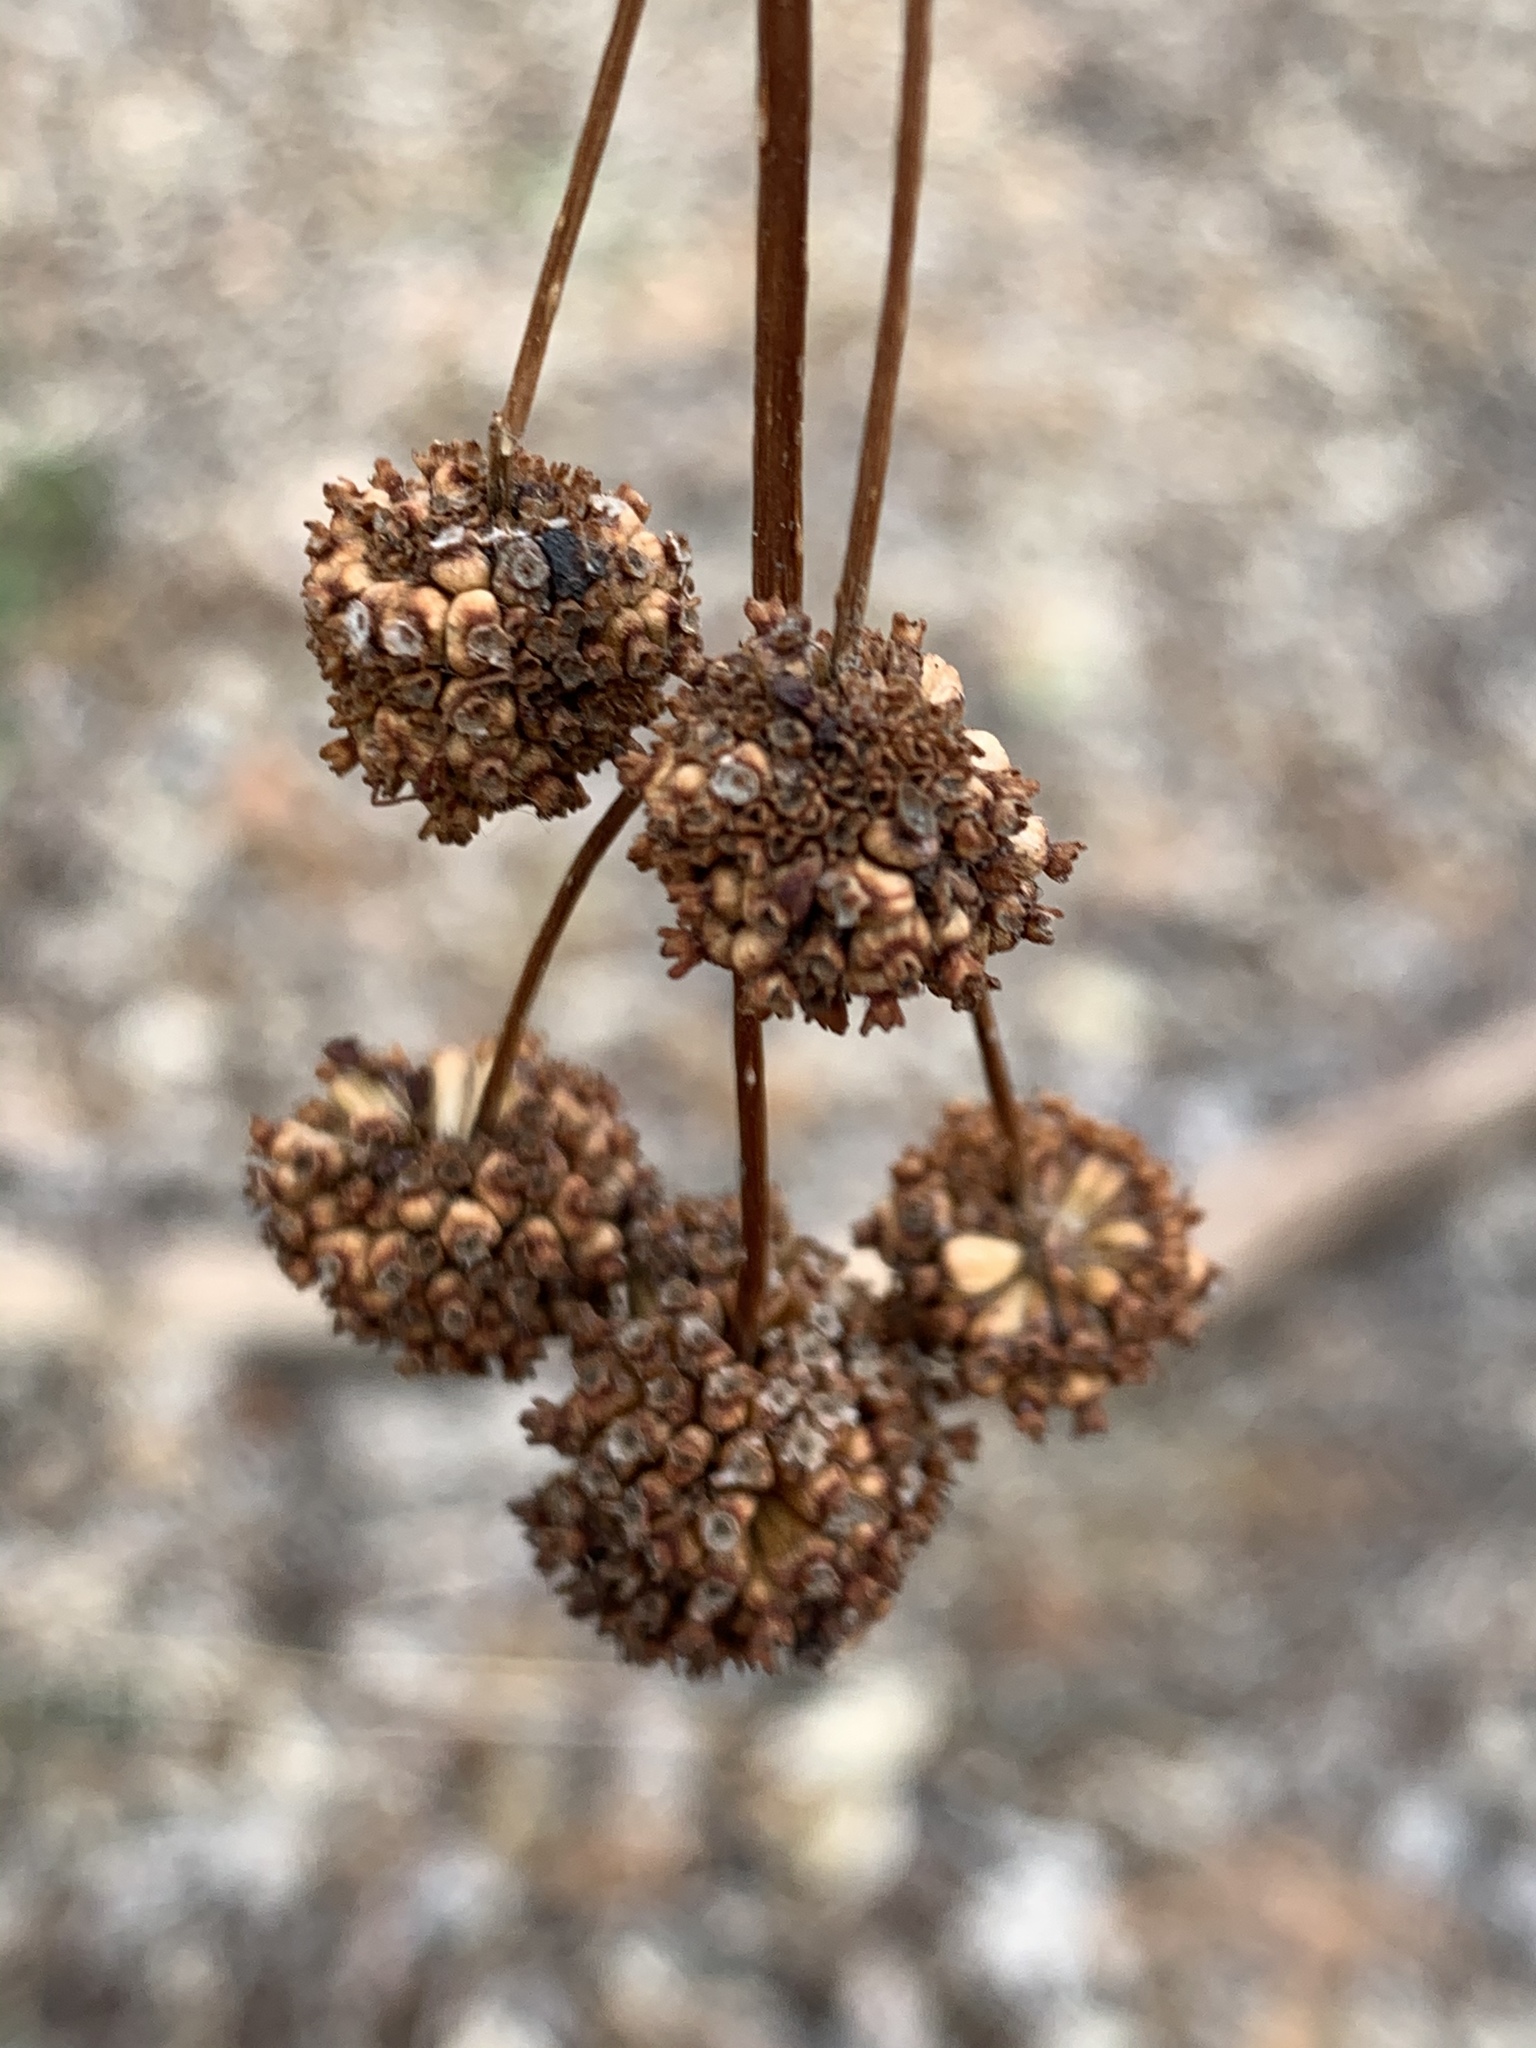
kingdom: Plantae
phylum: Tracheophyta
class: Magnoliopsida
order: Gentianales
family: Rubiaceae
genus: Cephalanthus
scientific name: Cephalanthus occidentalis
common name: Button-willow
